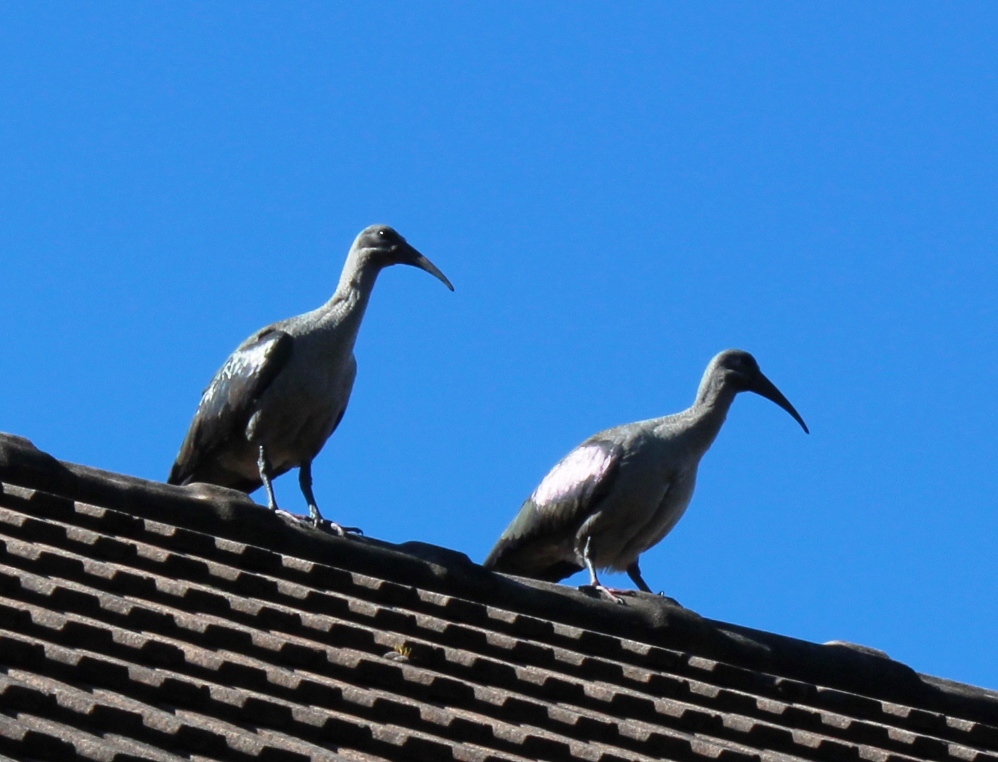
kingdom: Animalia
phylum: Chordata
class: Aves
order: Pelecaniformes
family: Threskiornithidae
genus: Bostrychia
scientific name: Bostrychia hagedash
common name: Hadada ibis
